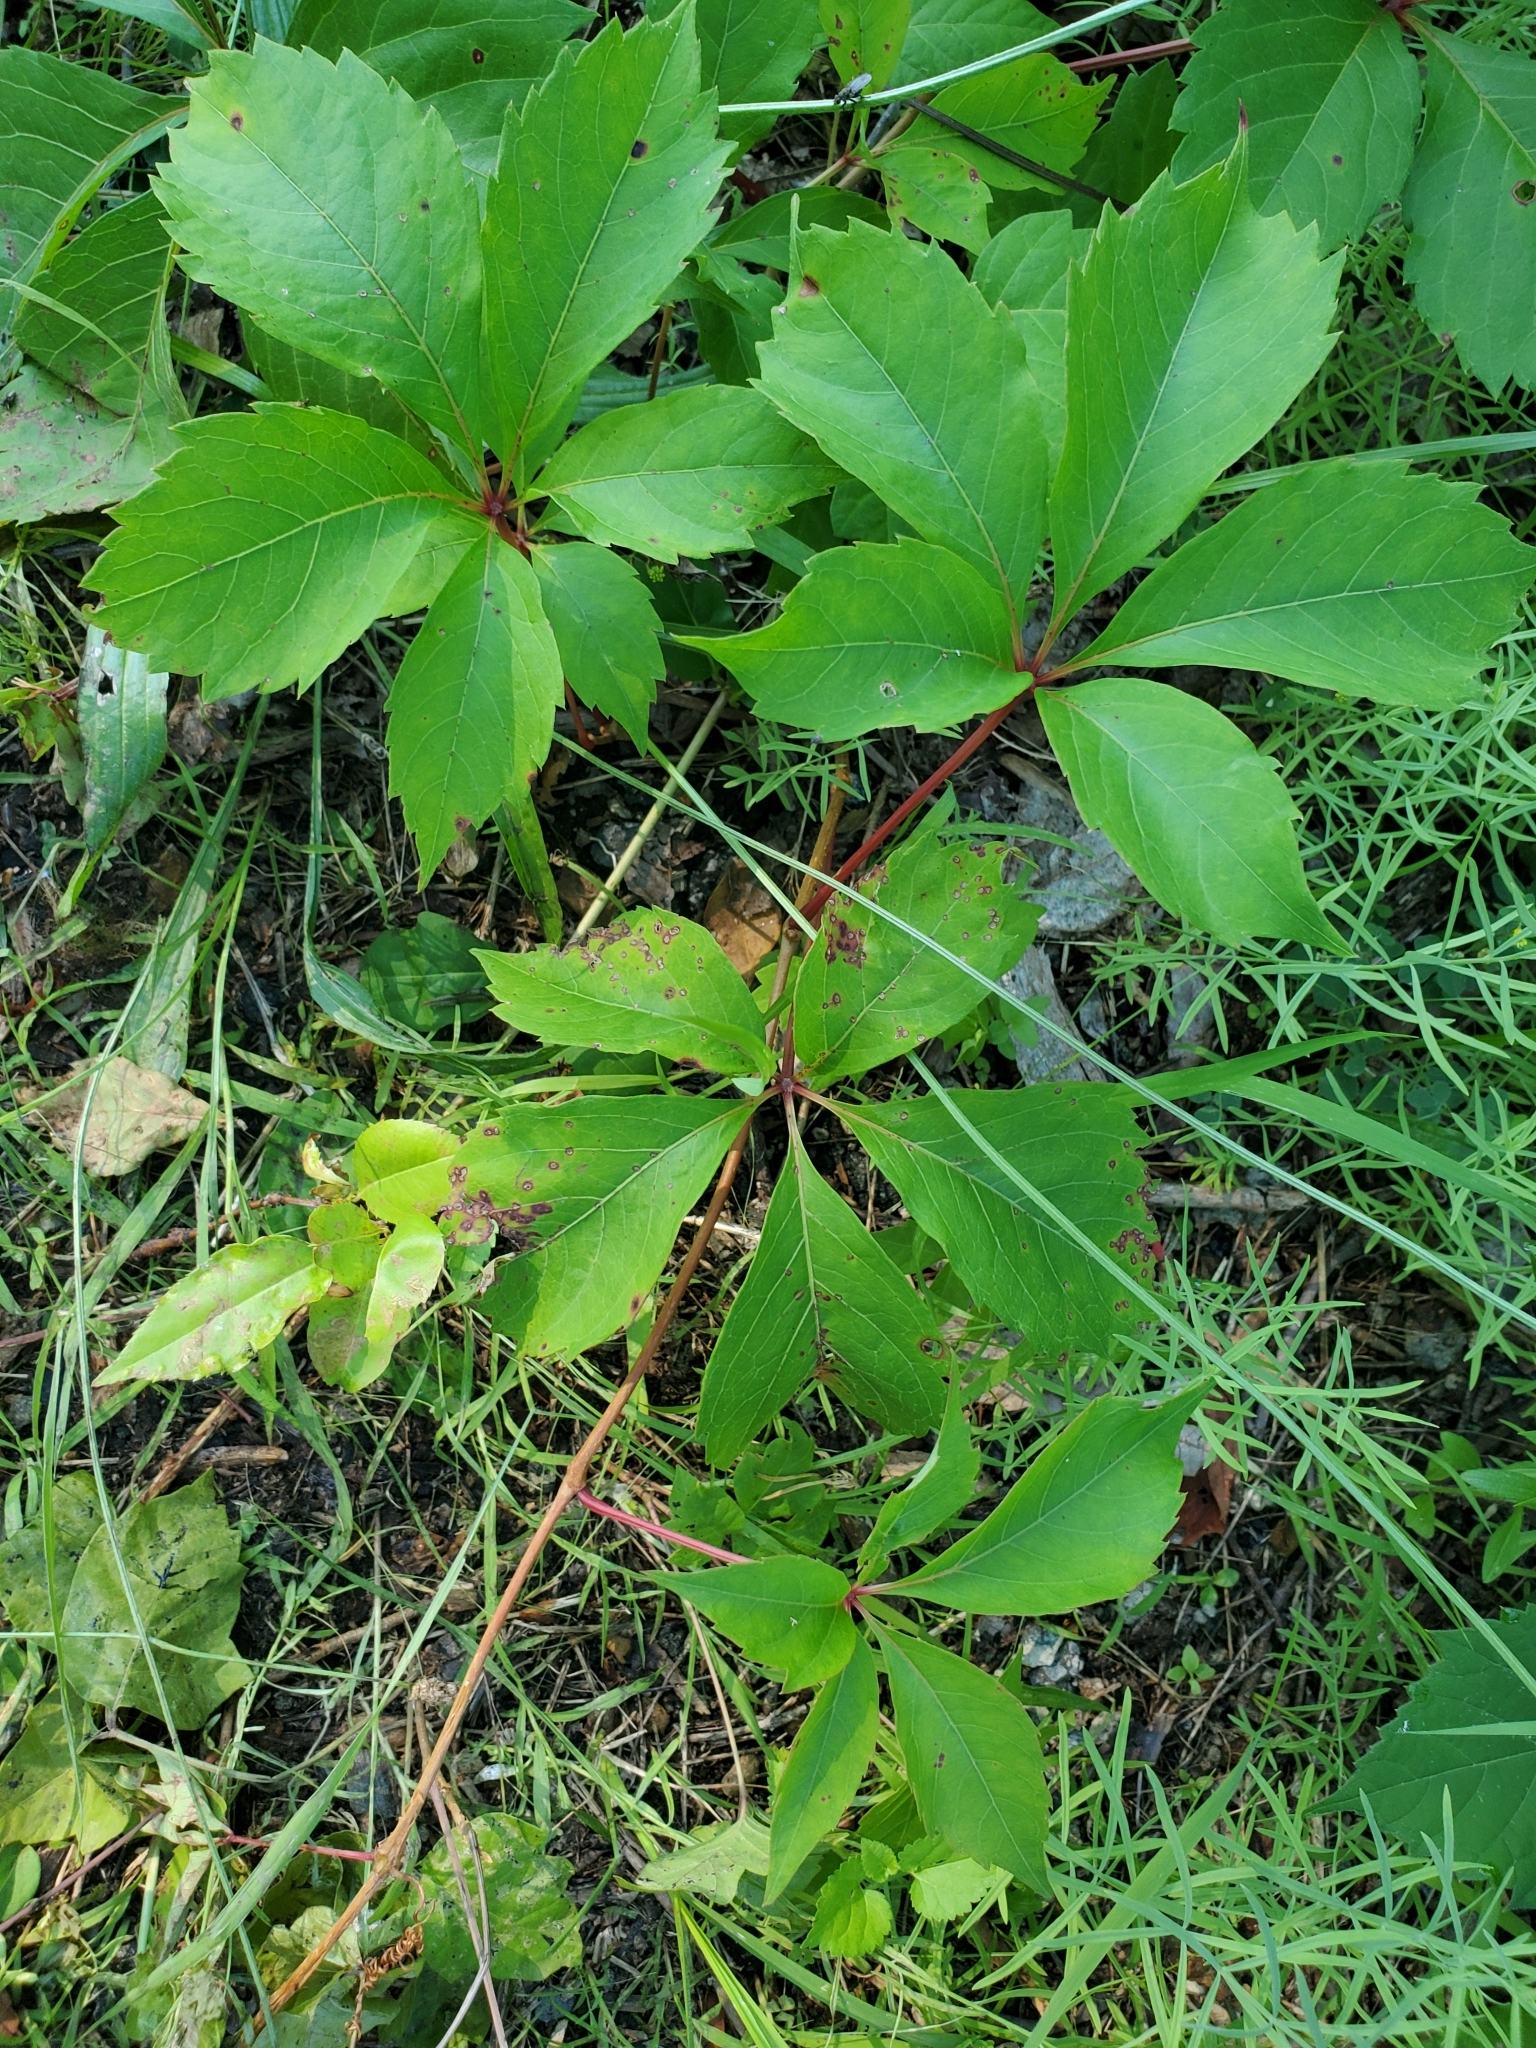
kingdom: Plantae
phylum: Tracheophyta
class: Magnoliopsida
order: Vitales
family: Vitaceae
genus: Parthenocissus
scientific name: Parthenocissus quinquefolia
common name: Virginia-creeper
